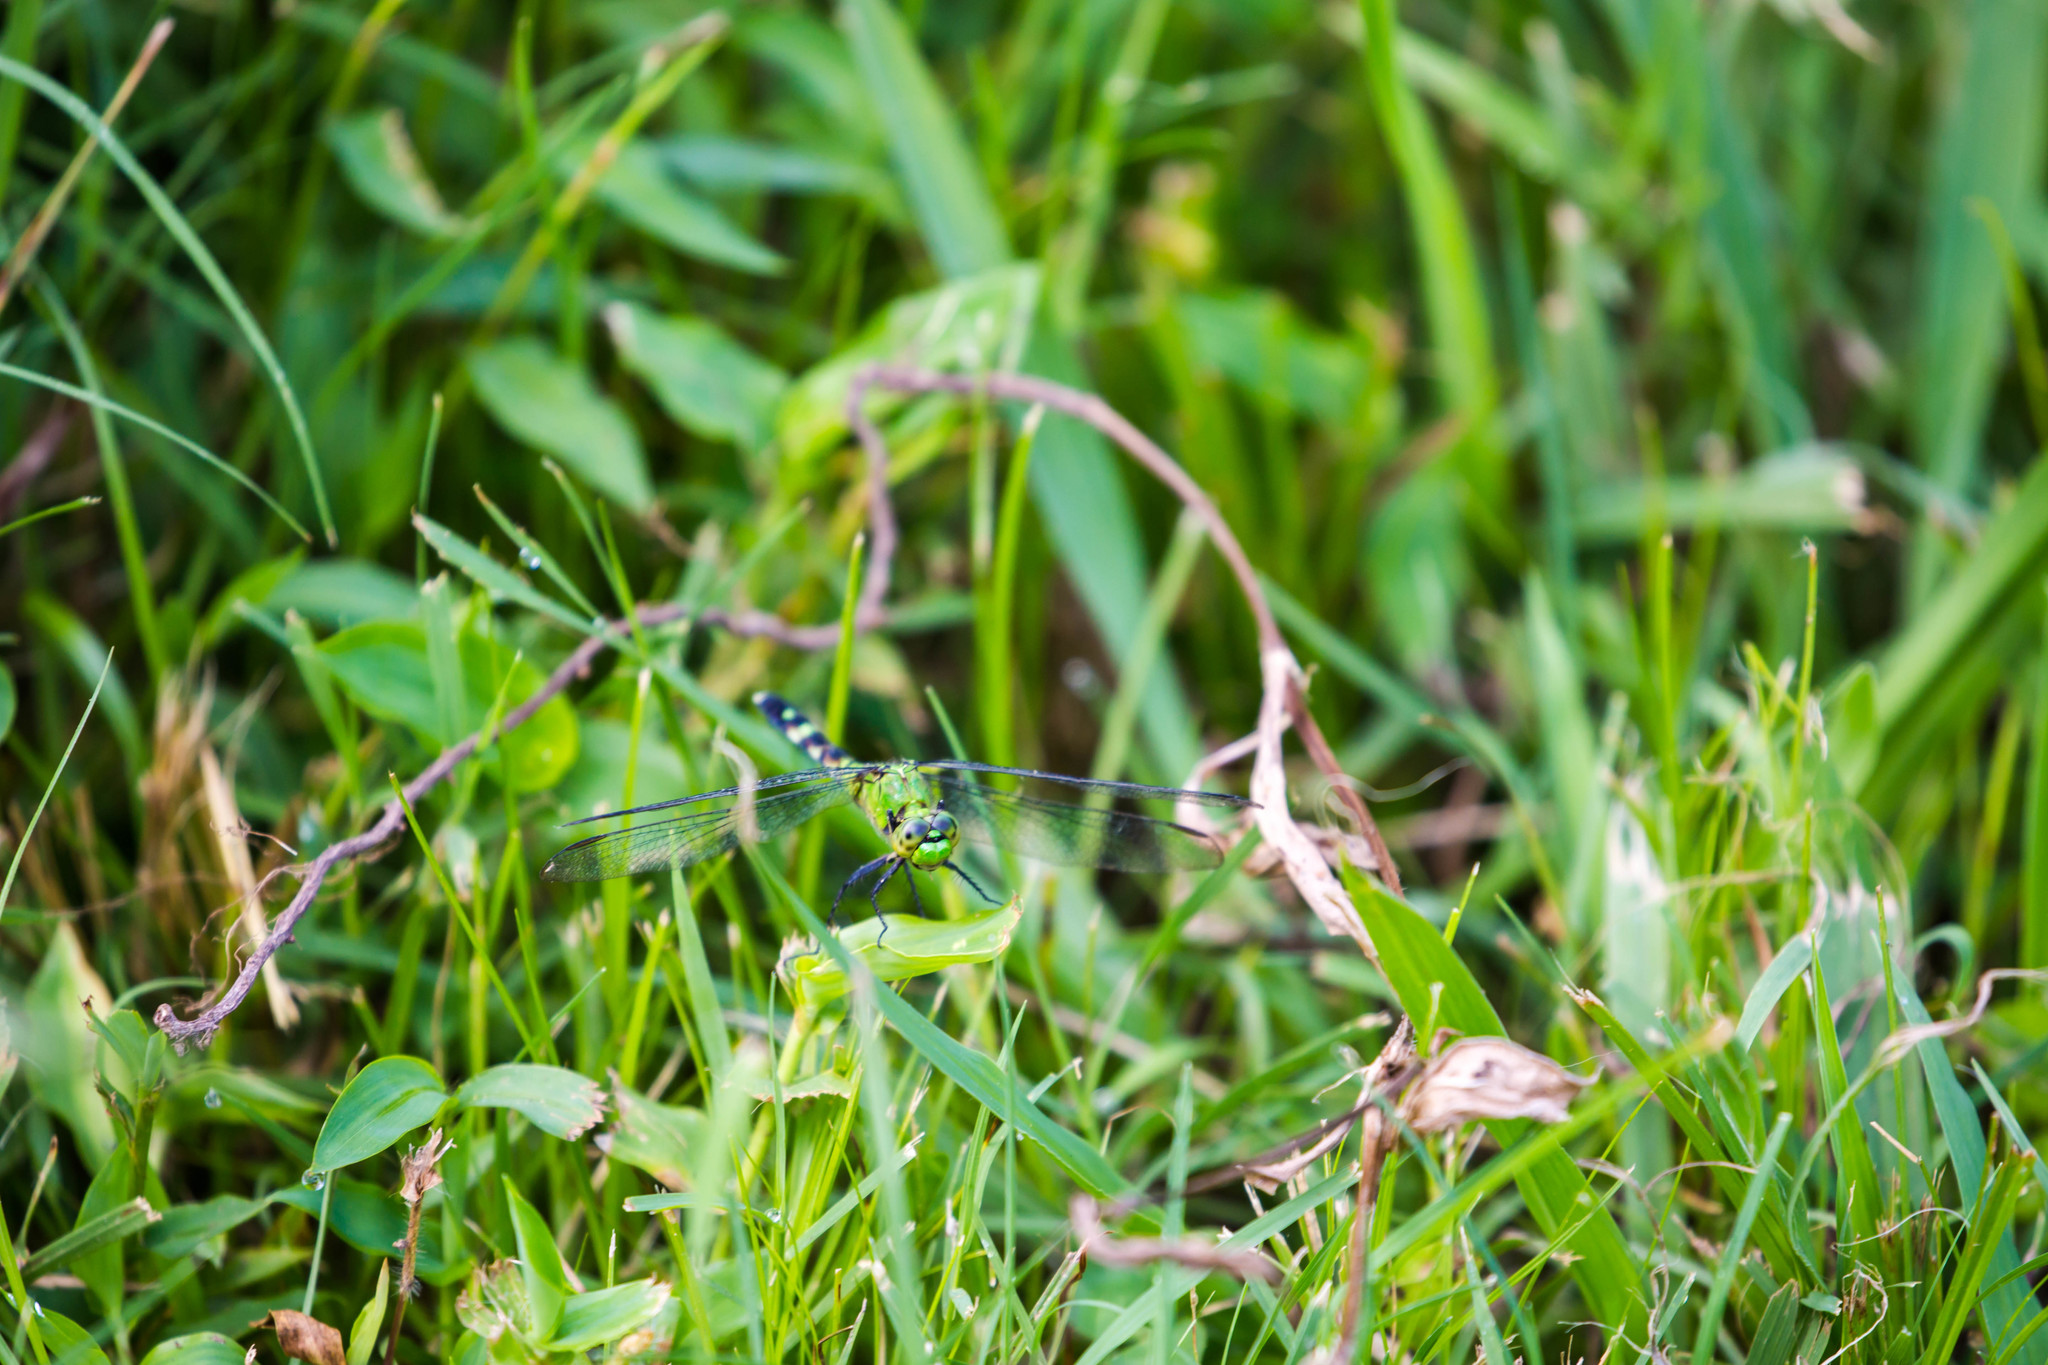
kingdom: Animalia
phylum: Arthropoda
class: Insecta
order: Odonata
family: Libellulidae
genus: Erythemis
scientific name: Erythemis simplicicollis
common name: Eastern pondhawk
